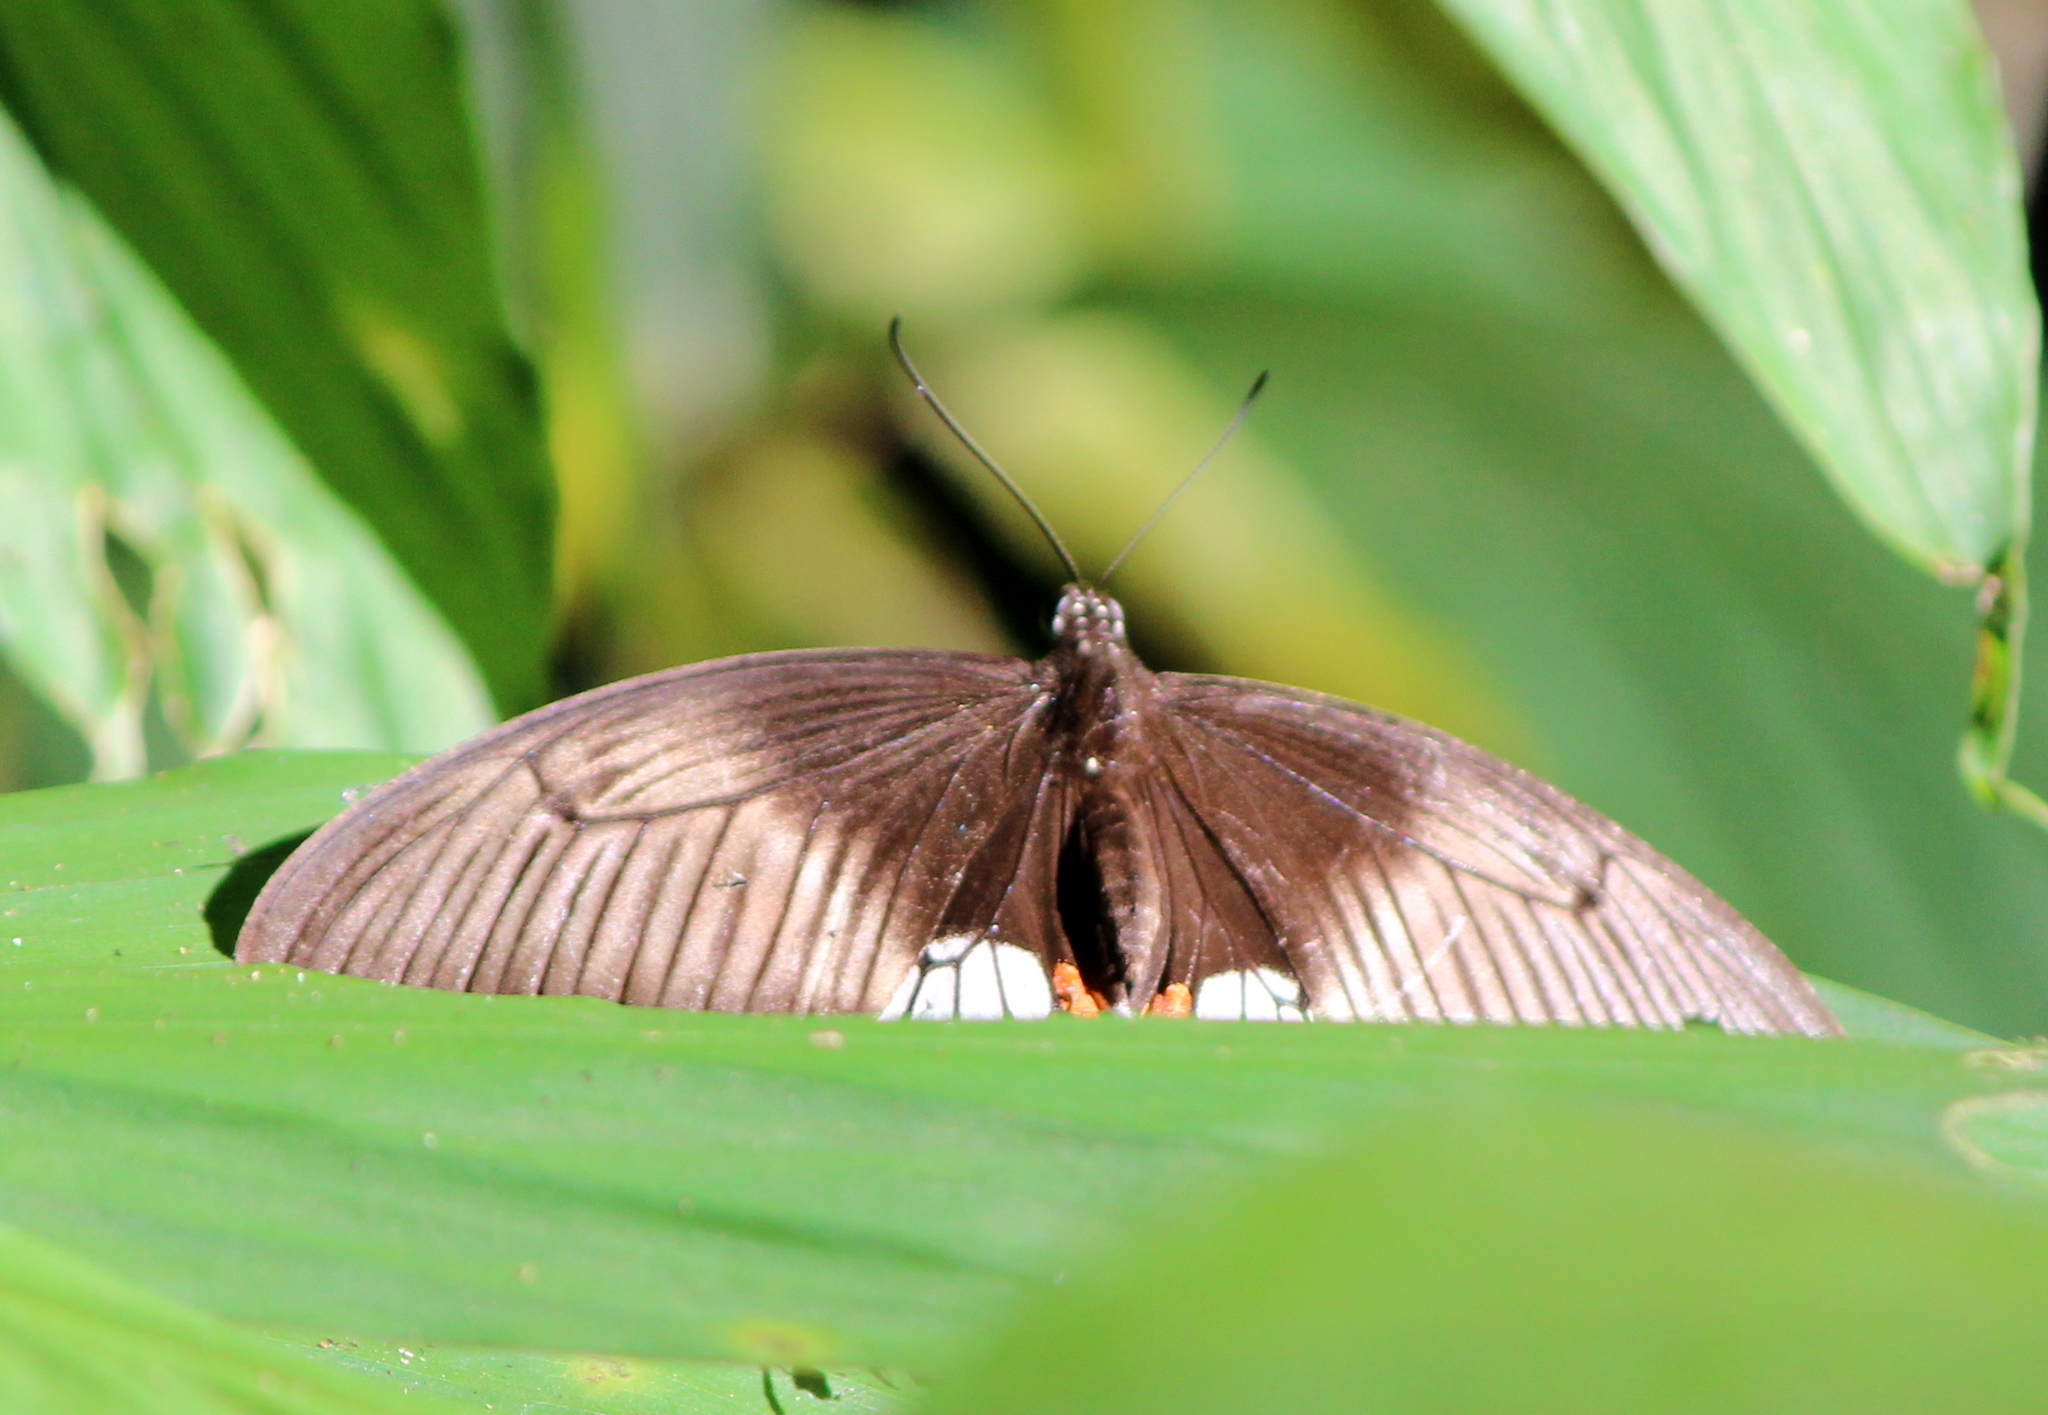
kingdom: Animalia
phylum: Arthropoda
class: Insecta
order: Lepidoptera
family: Papilionidae
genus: Papilio
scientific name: Papilio polytes
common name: Common mormon
